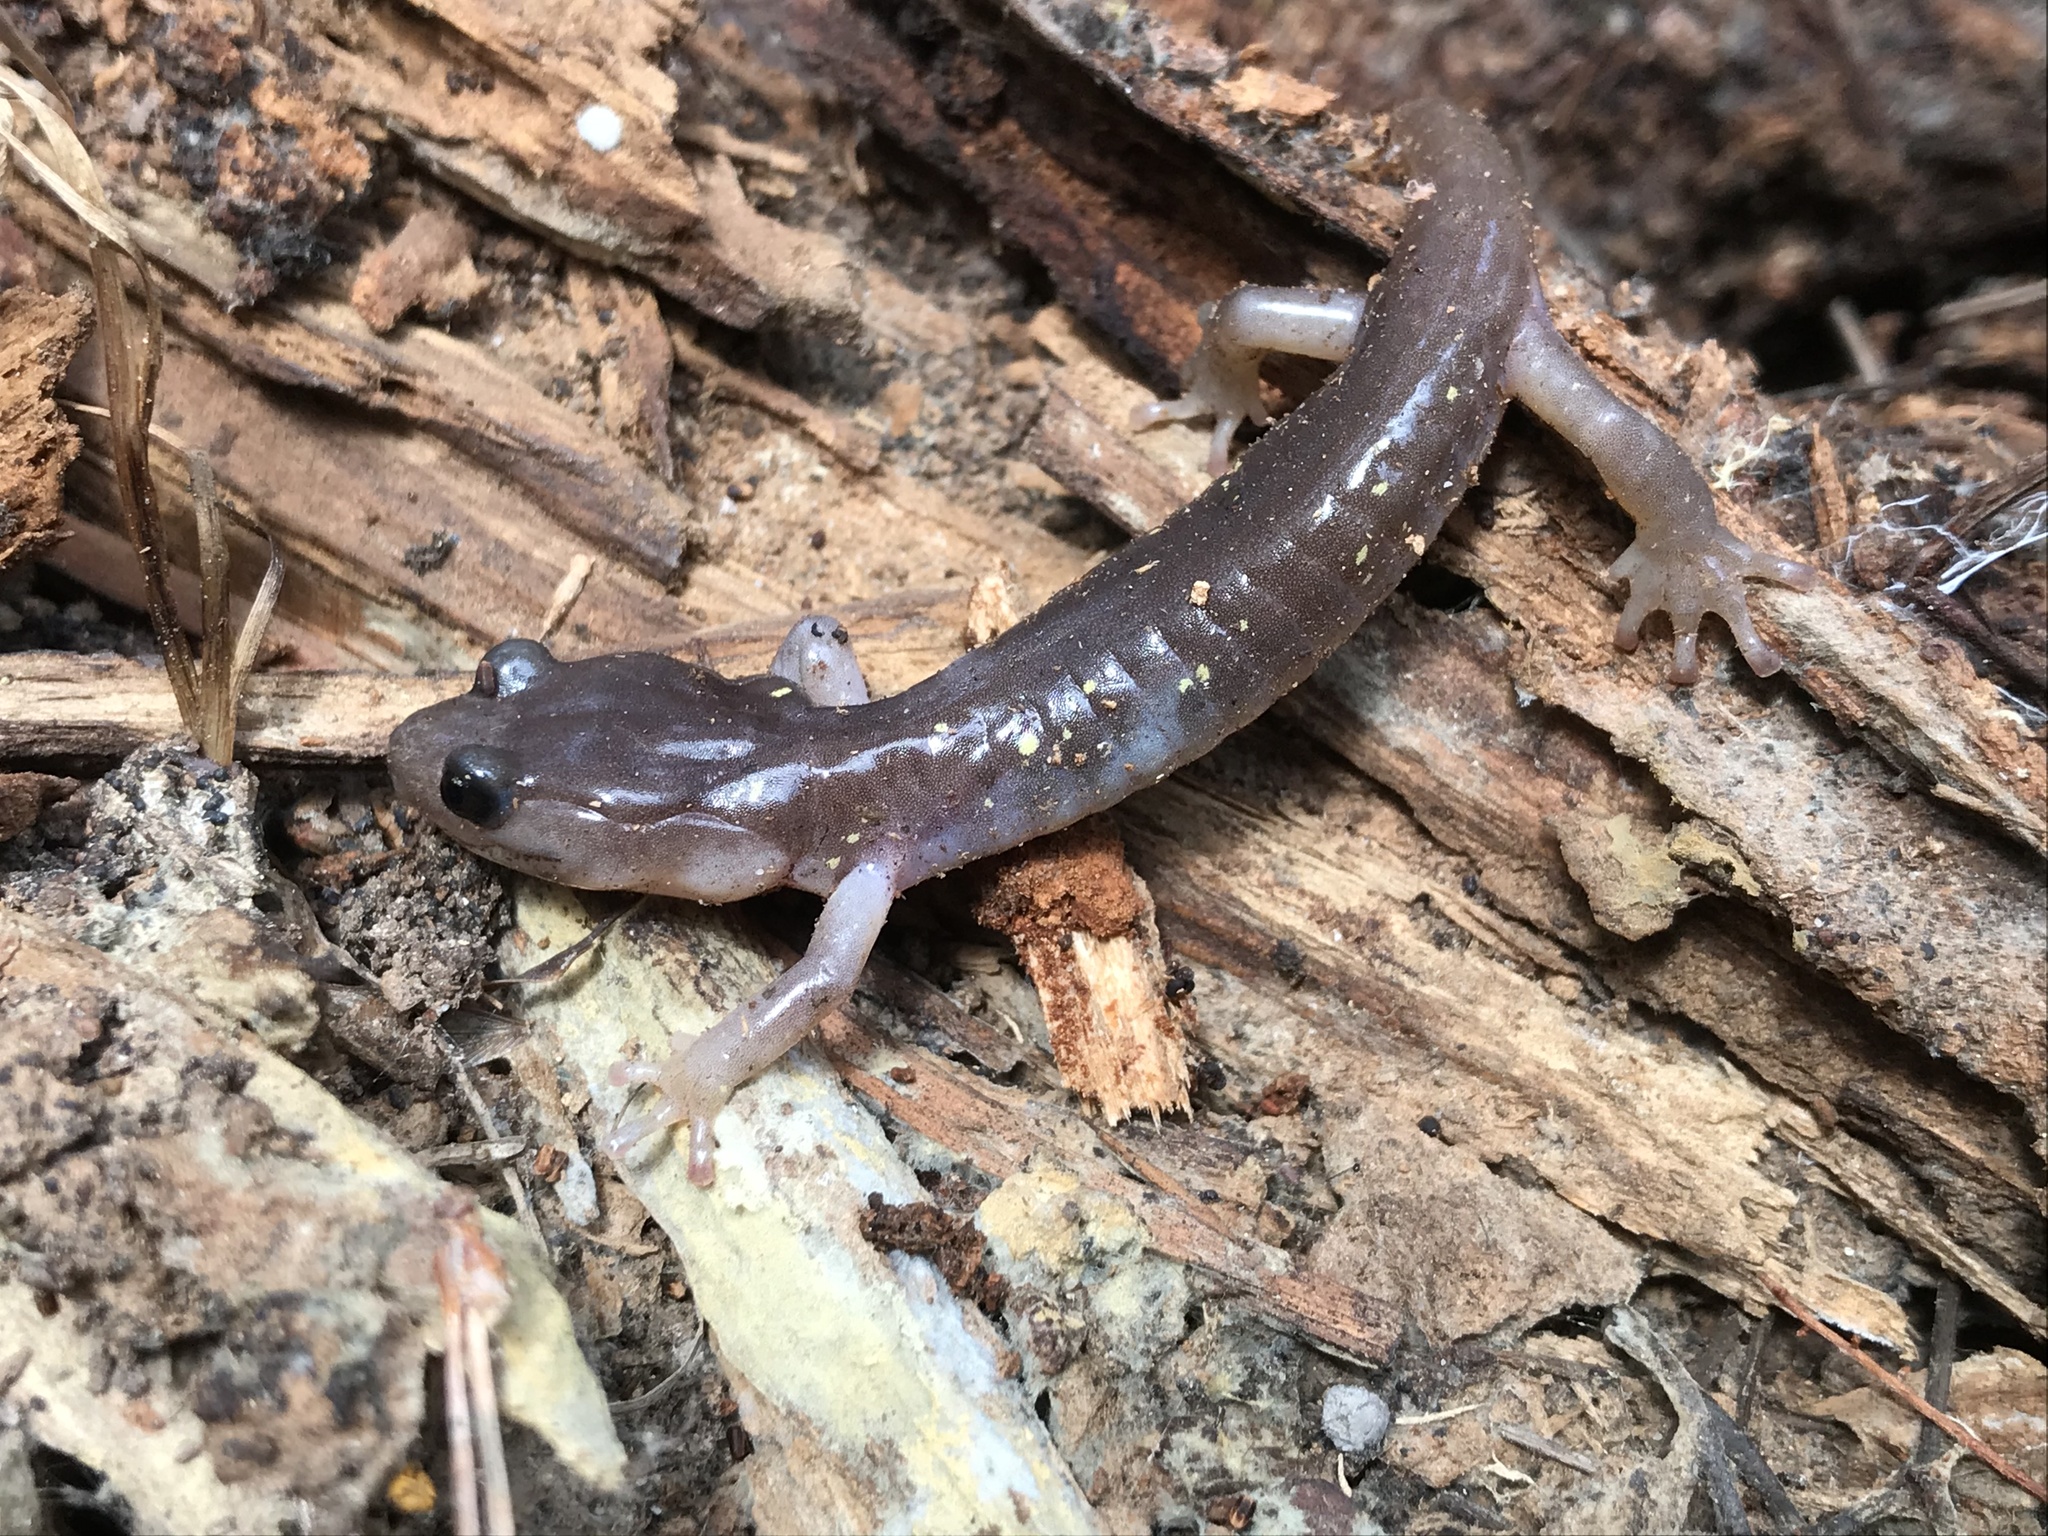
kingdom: Animalia
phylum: Chordata
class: Amphibia
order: Caudata
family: Plethodontidae
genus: Aneides
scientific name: Aneides lugubris
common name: Arboreal salamander
